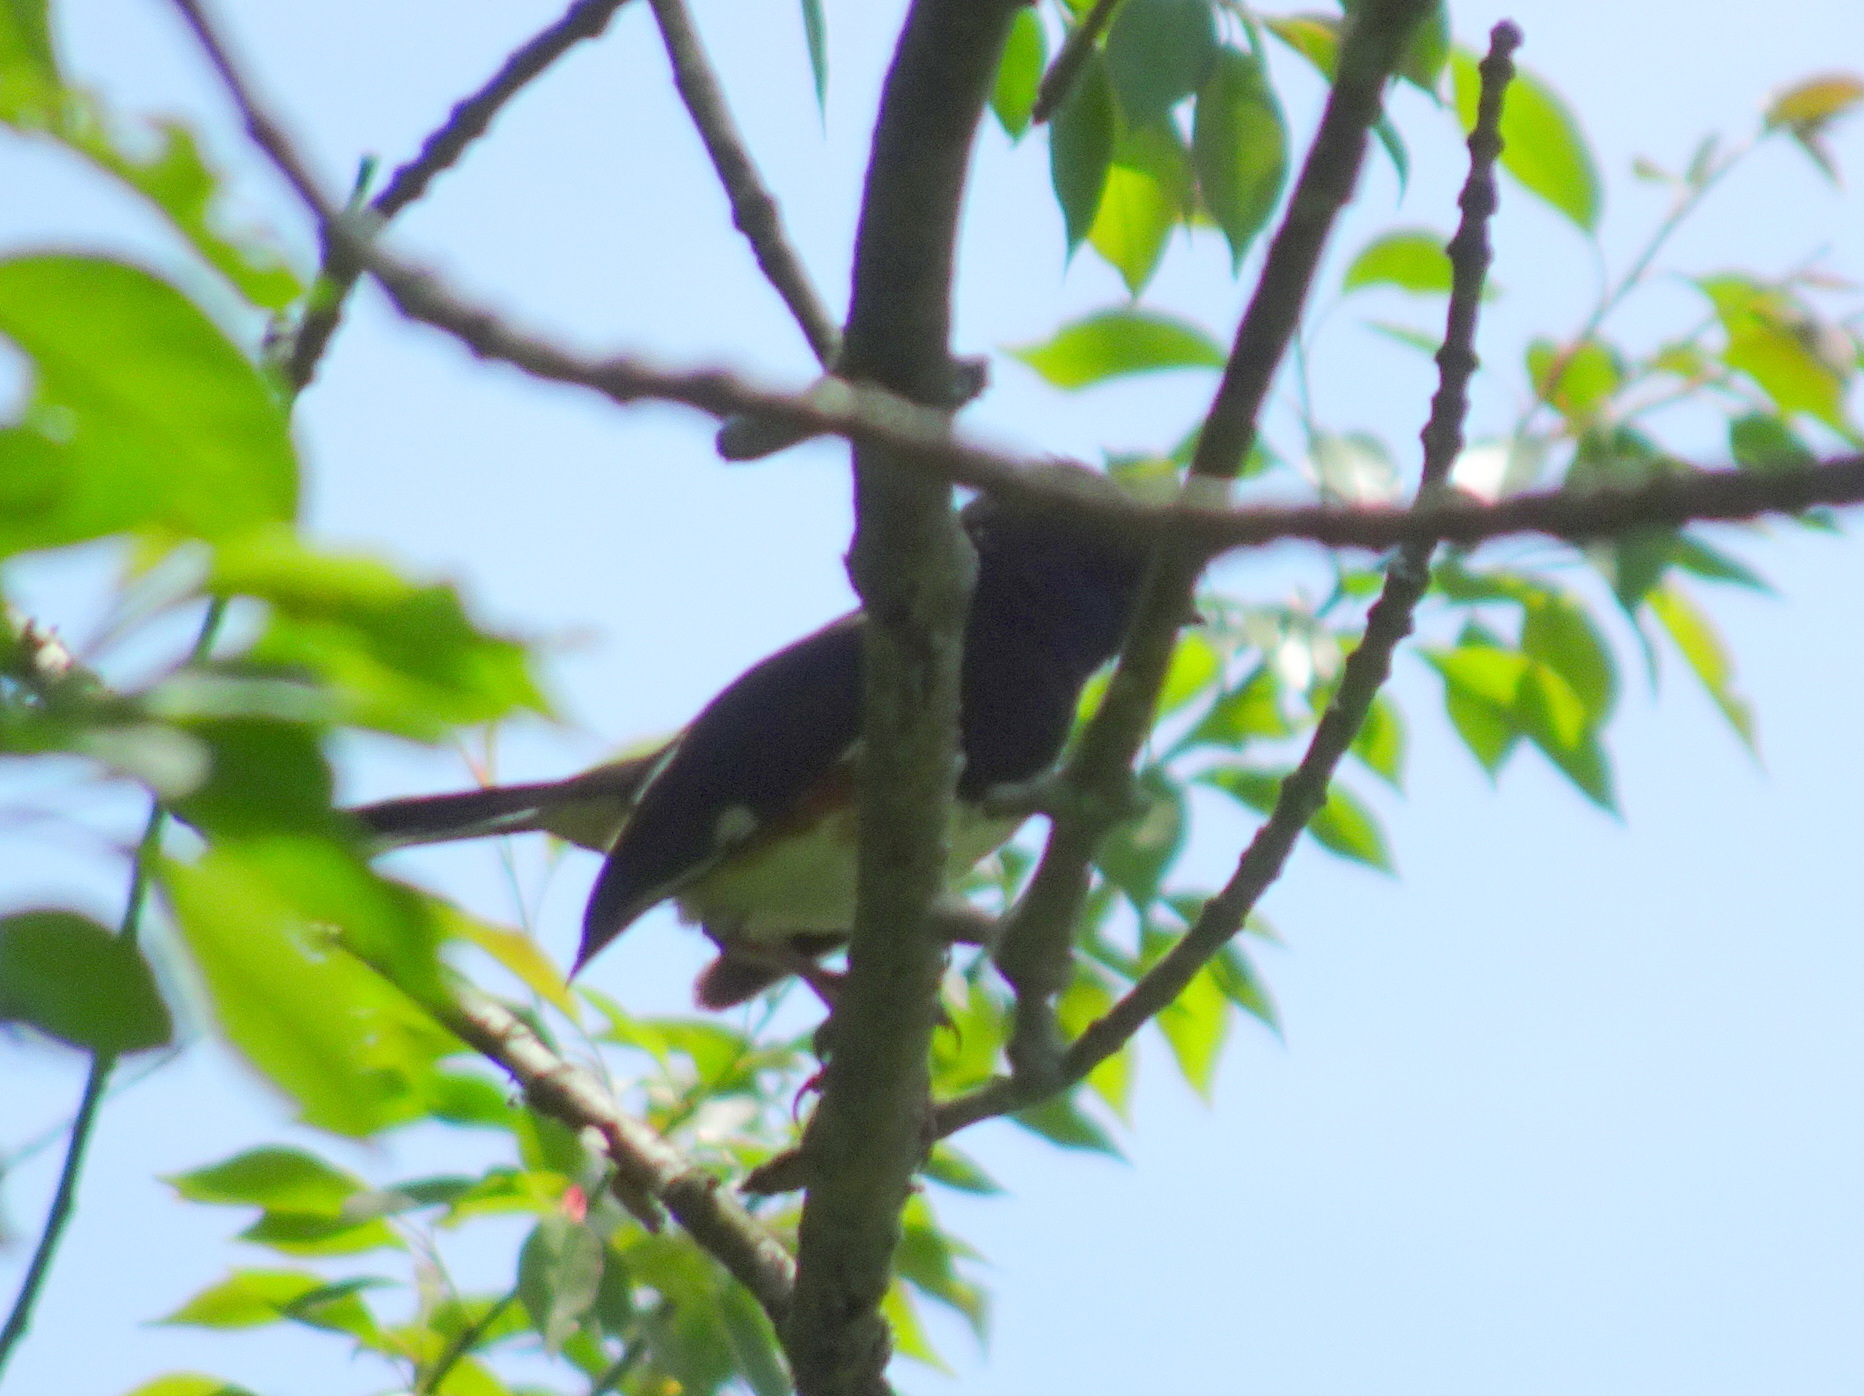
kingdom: Animalia
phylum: Chordata
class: Aves
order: Passeriformes
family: Passerellidae
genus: Pipilo
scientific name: Pipilo erythrophthalmus
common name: Eastern towhee
